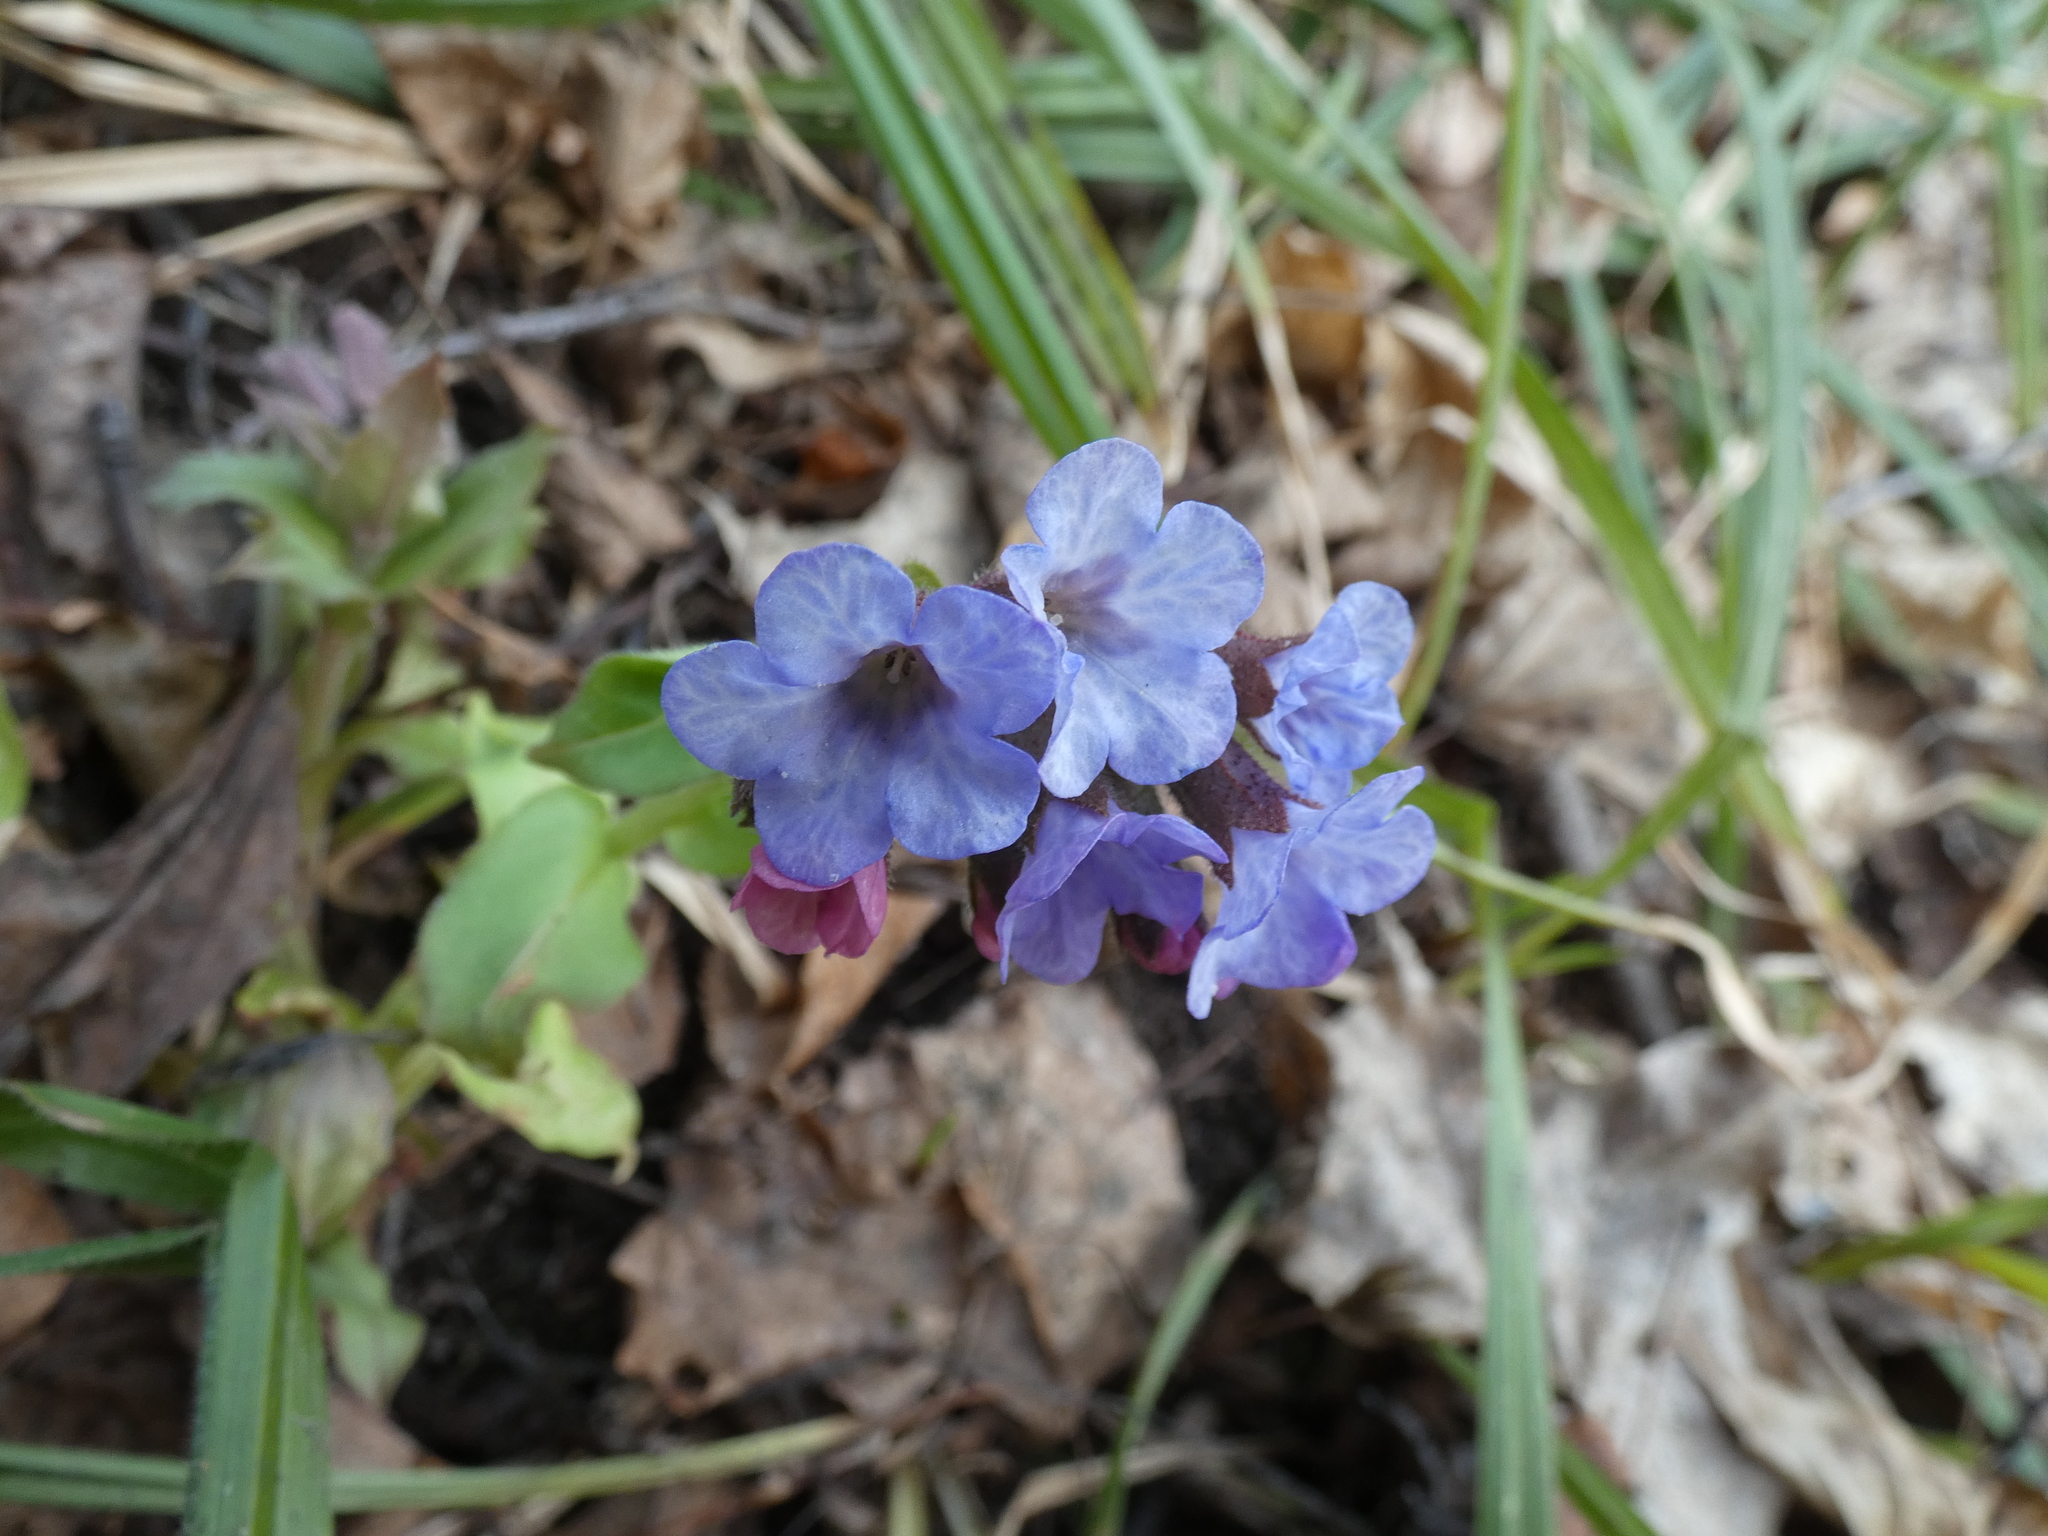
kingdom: Plantae
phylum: Tracheophyta
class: Magnoliopsida
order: Boraginales
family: Boraginaceae
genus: Pulmonaria
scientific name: Pulmonaria obscura
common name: Suffolk lungwort
